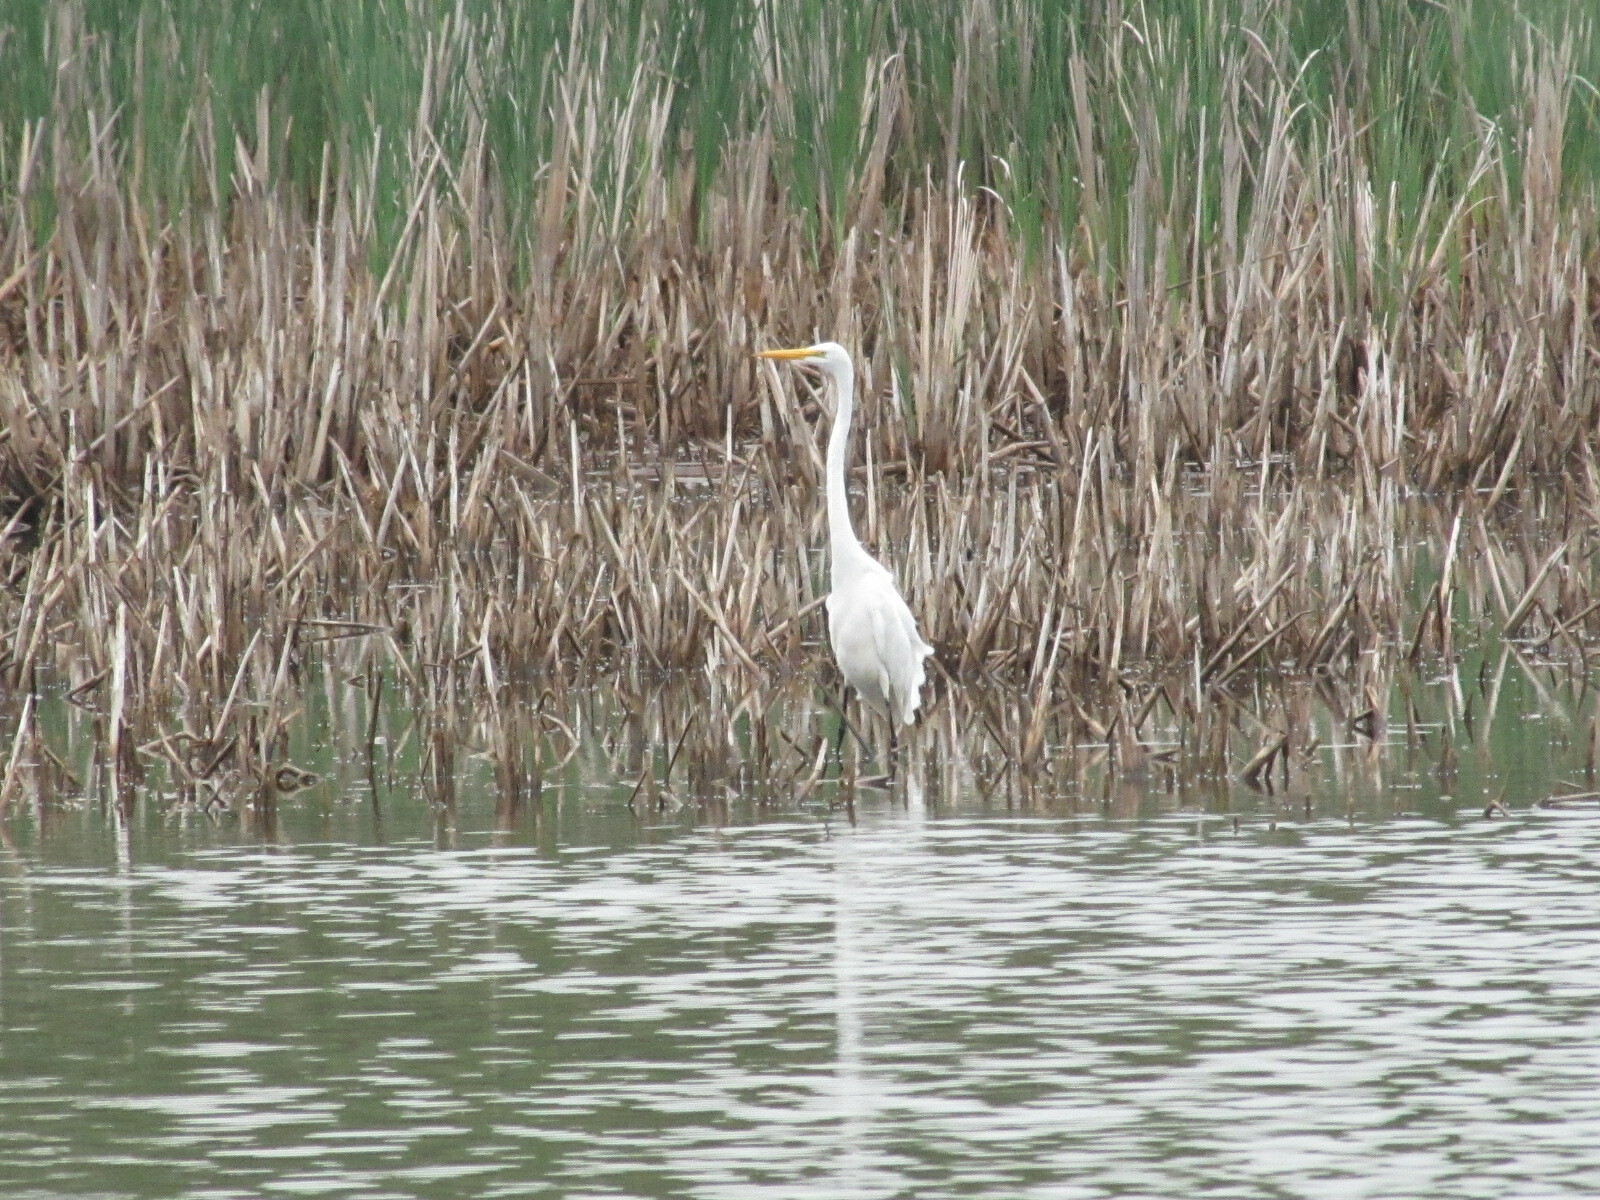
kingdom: Animalia
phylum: Chordata
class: Aves
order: Pelecaniformes
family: Ardeidae
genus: Ardea
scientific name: Ardea alba
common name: Great egret
